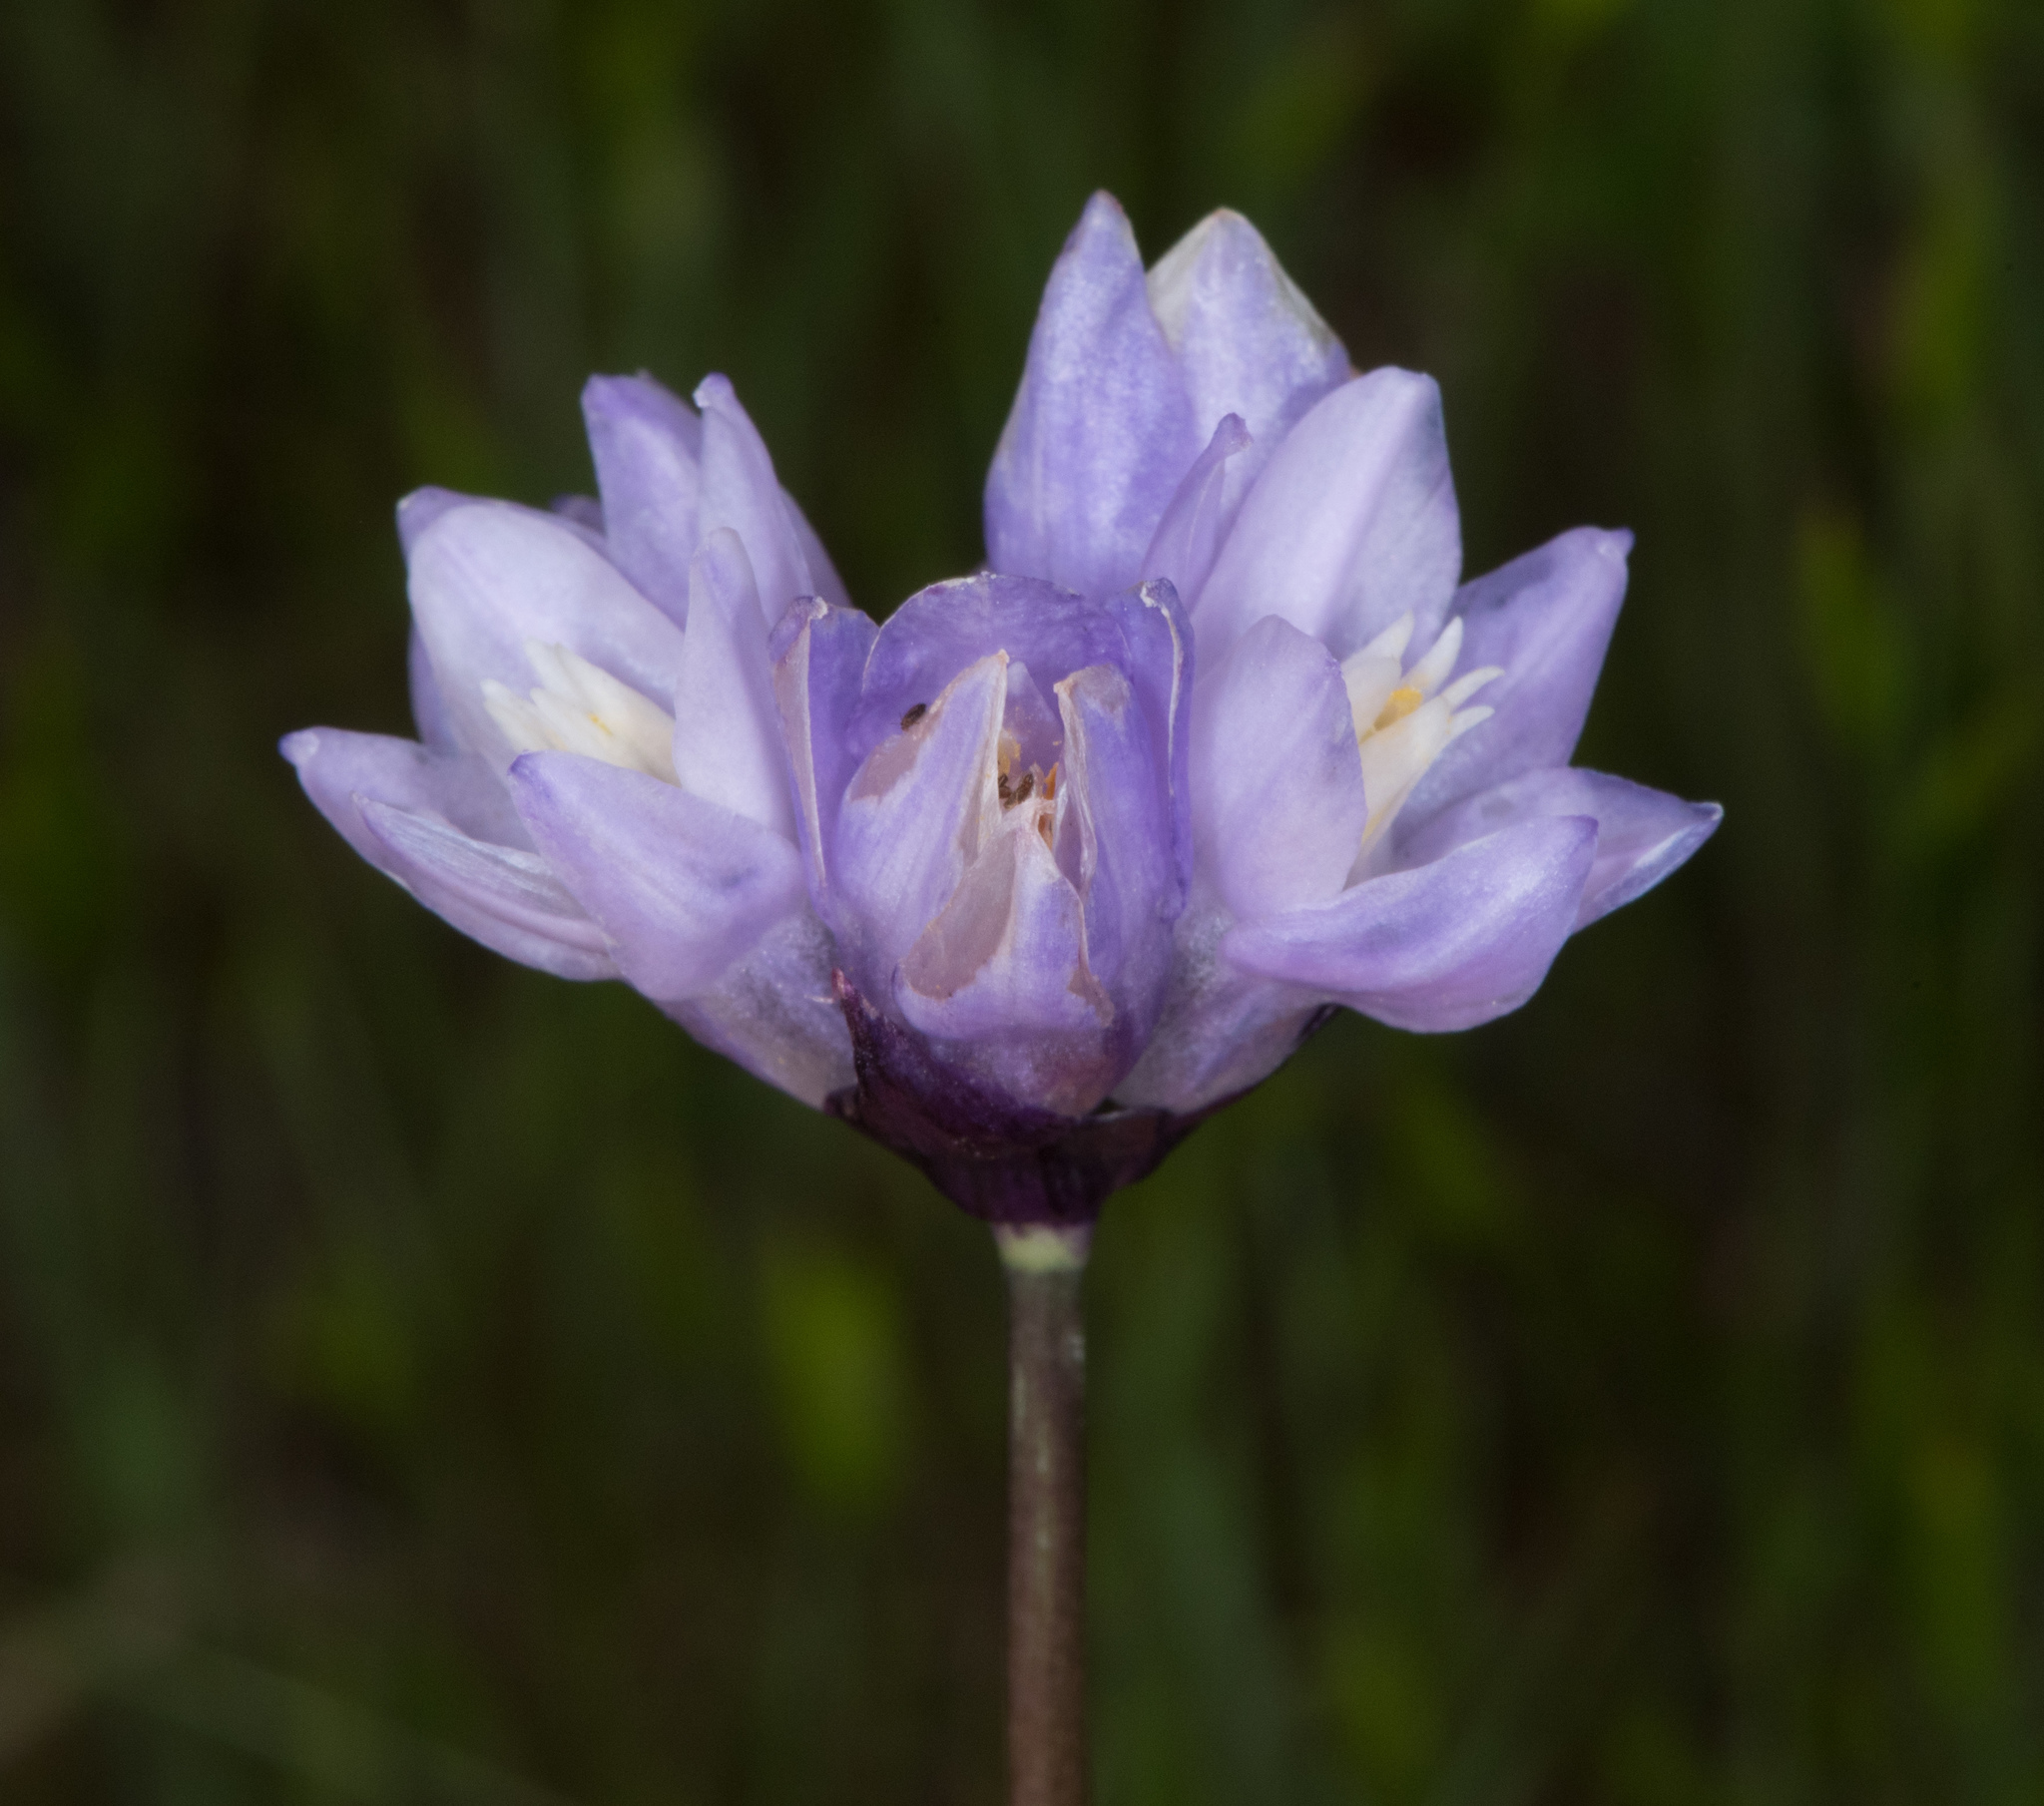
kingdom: Plantae
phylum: Tracheophyta
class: Liliopsida
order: Asparagales
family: Asparagaceae
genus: Dipterostemon
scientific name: Dipterostemon capitatus
